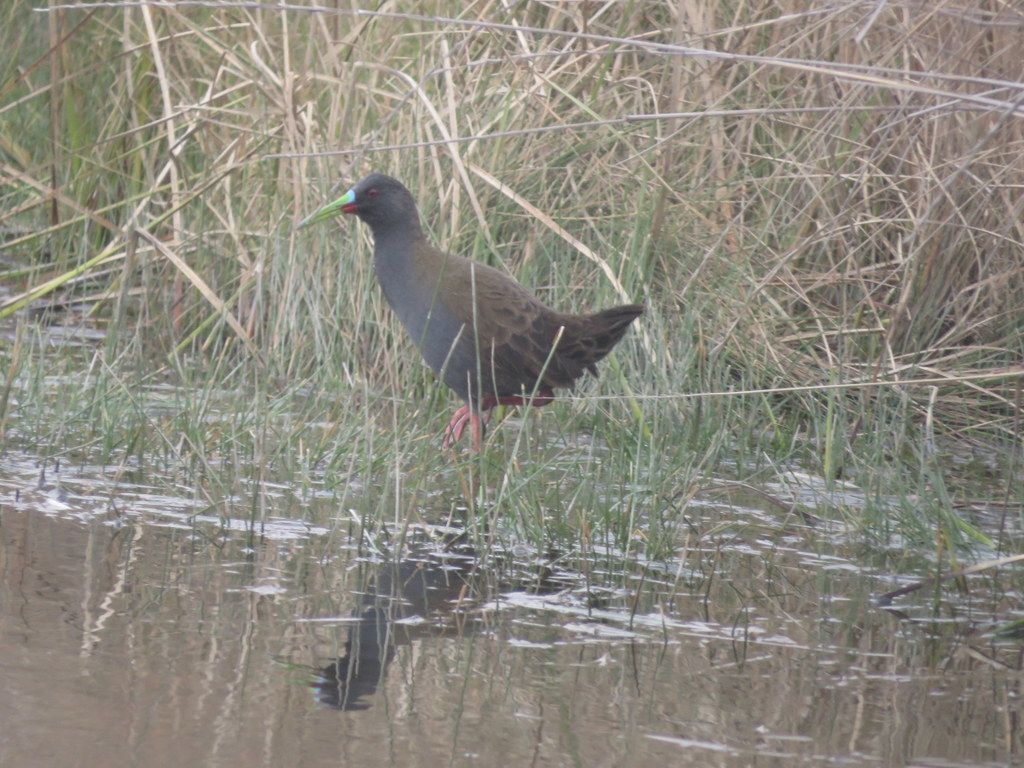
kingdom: Animalia
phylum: Chordata
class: Aves
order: Gruiformes
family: Rallidae
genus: Pardirallus
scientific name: Pardirallus sanguinolentus
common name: Plumbeous rail
